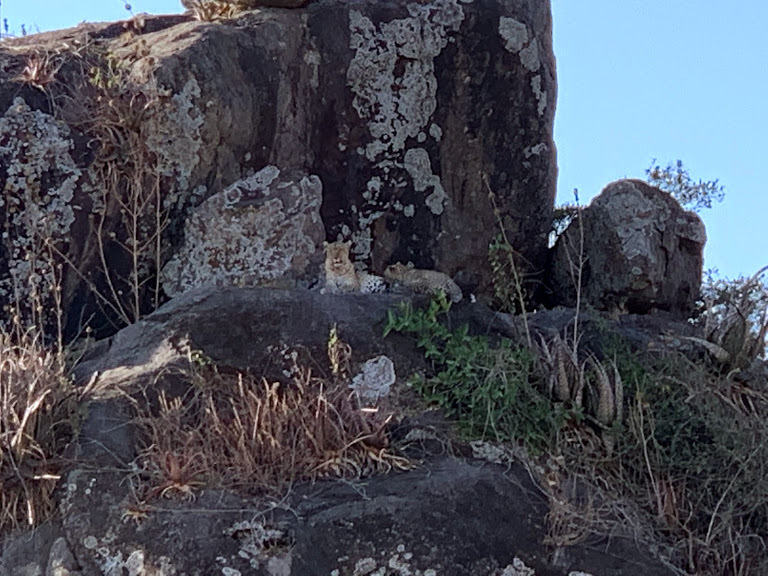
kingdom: Animalia
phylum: Chordata
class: Mammalia
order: Carnivora
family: Felidae
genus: Panthera
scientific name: Panthera pardus
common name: Leopard
